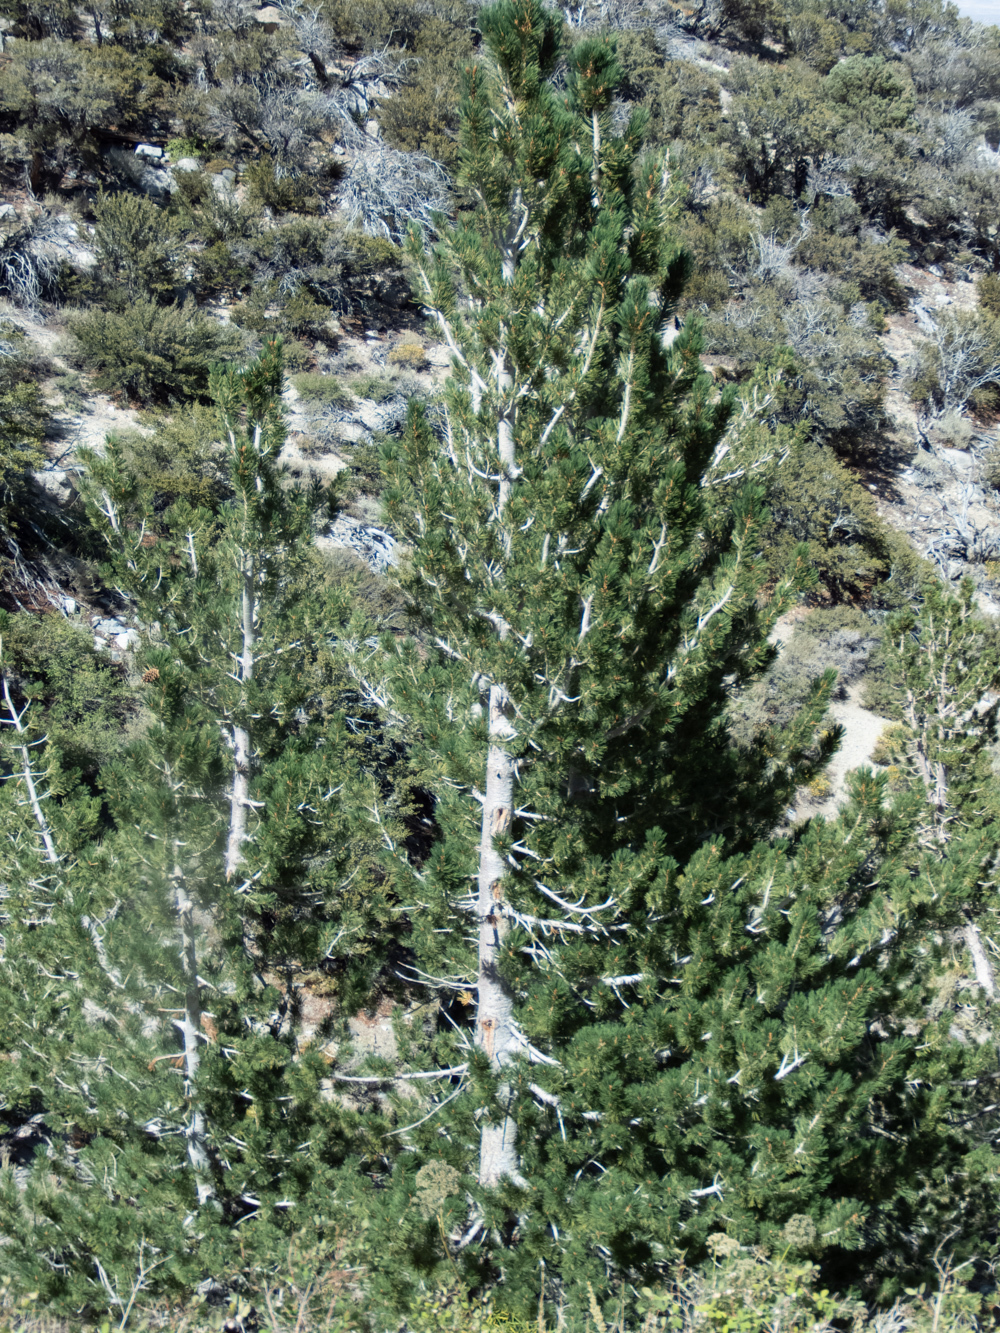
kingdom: Plantae
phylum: Tracheophyta
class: Pinopsida
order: Pinales
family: Pinaceae
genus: Pinus
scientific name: Pinus flexilis
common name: Limber pine
